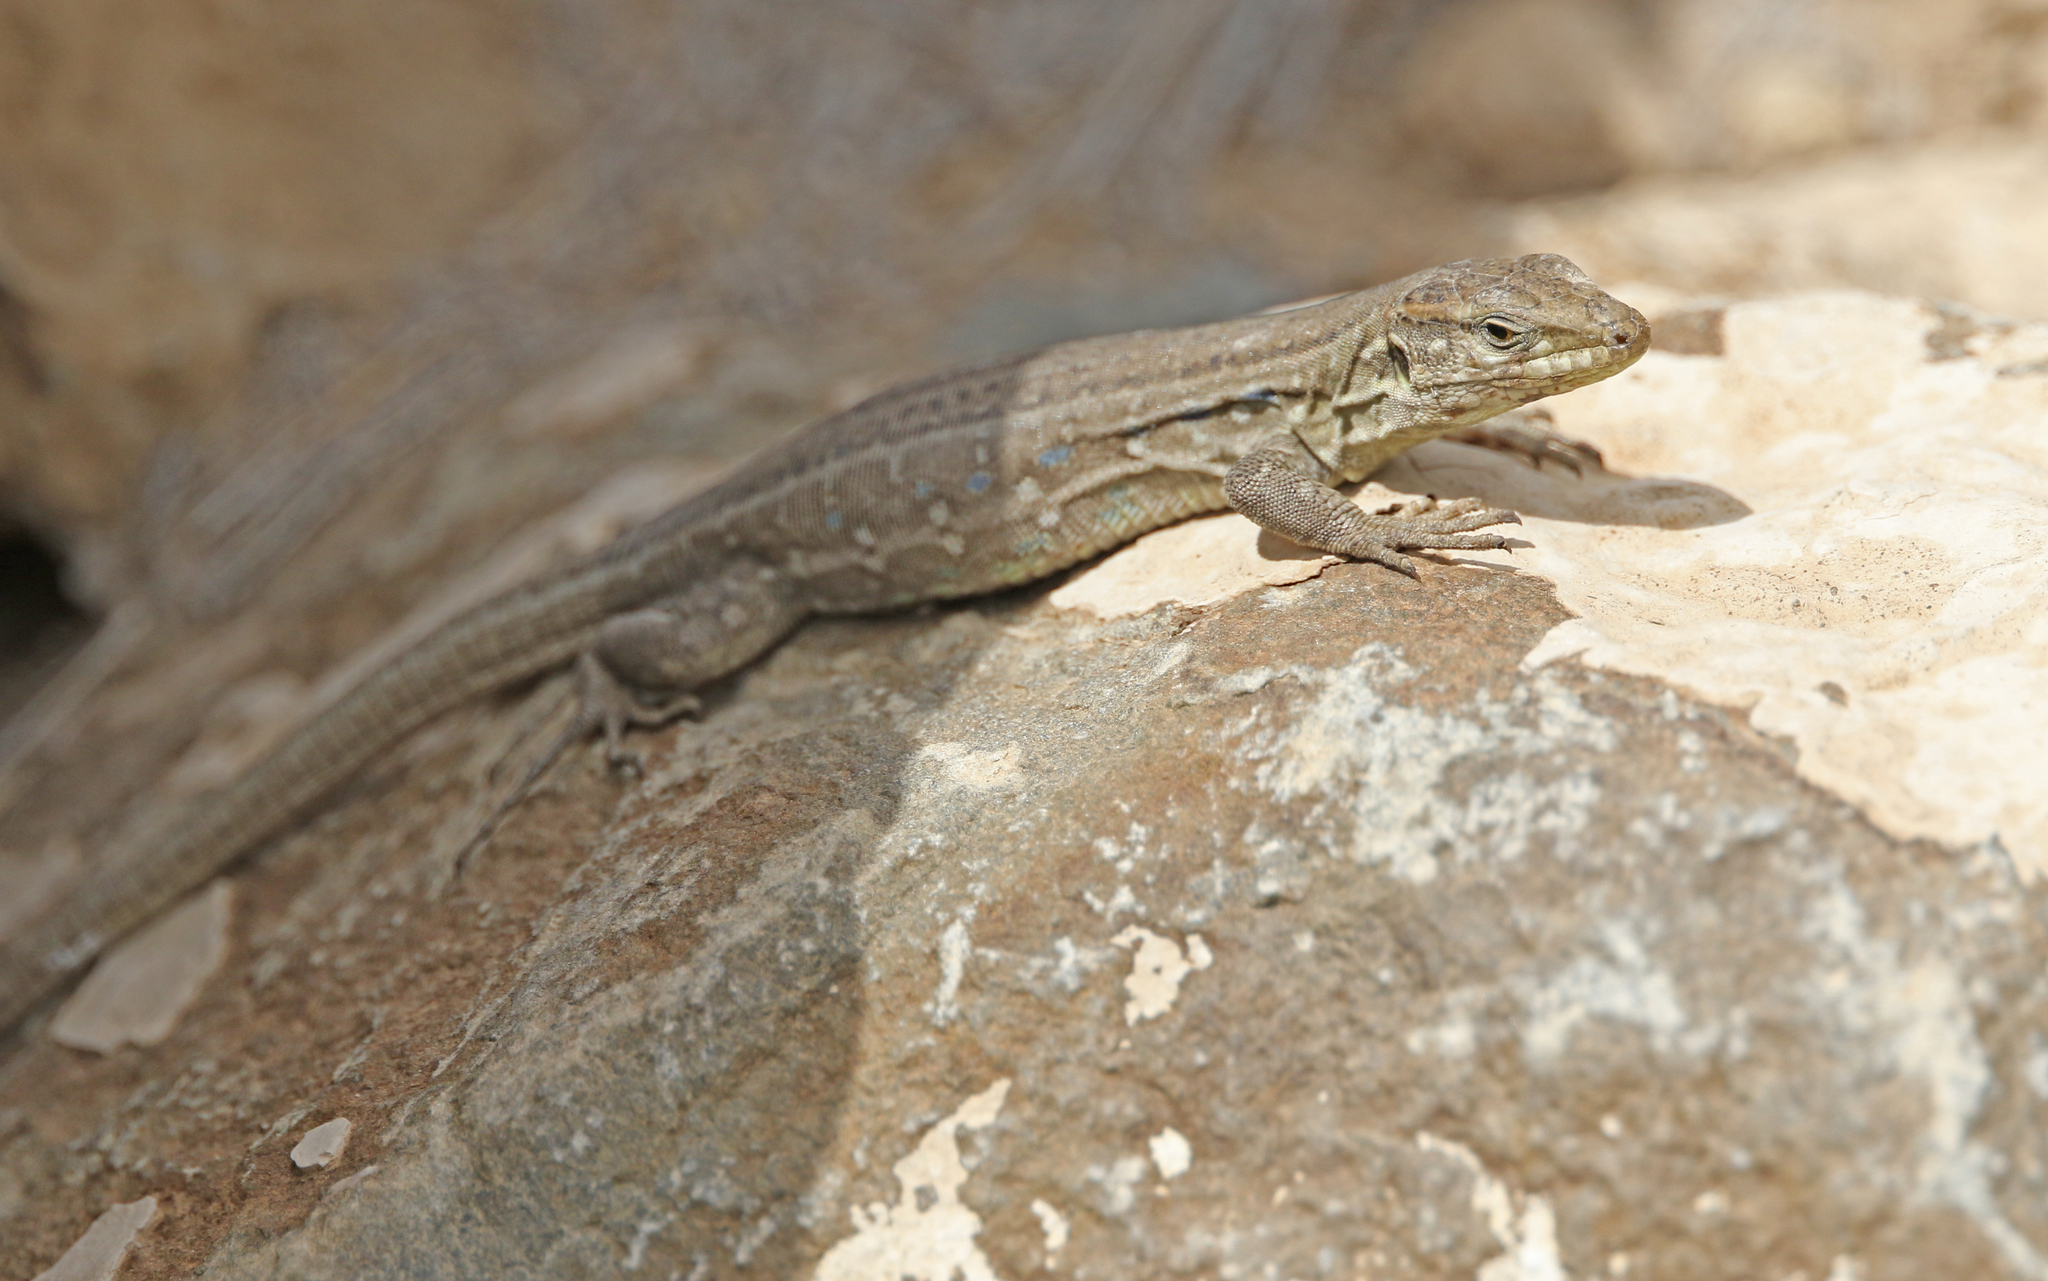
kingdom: Animalia
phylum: Chordata
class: Squamata
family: Lacertidae
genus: Gallotia
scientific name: Gallotia galloti
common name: Gallot's lizard
